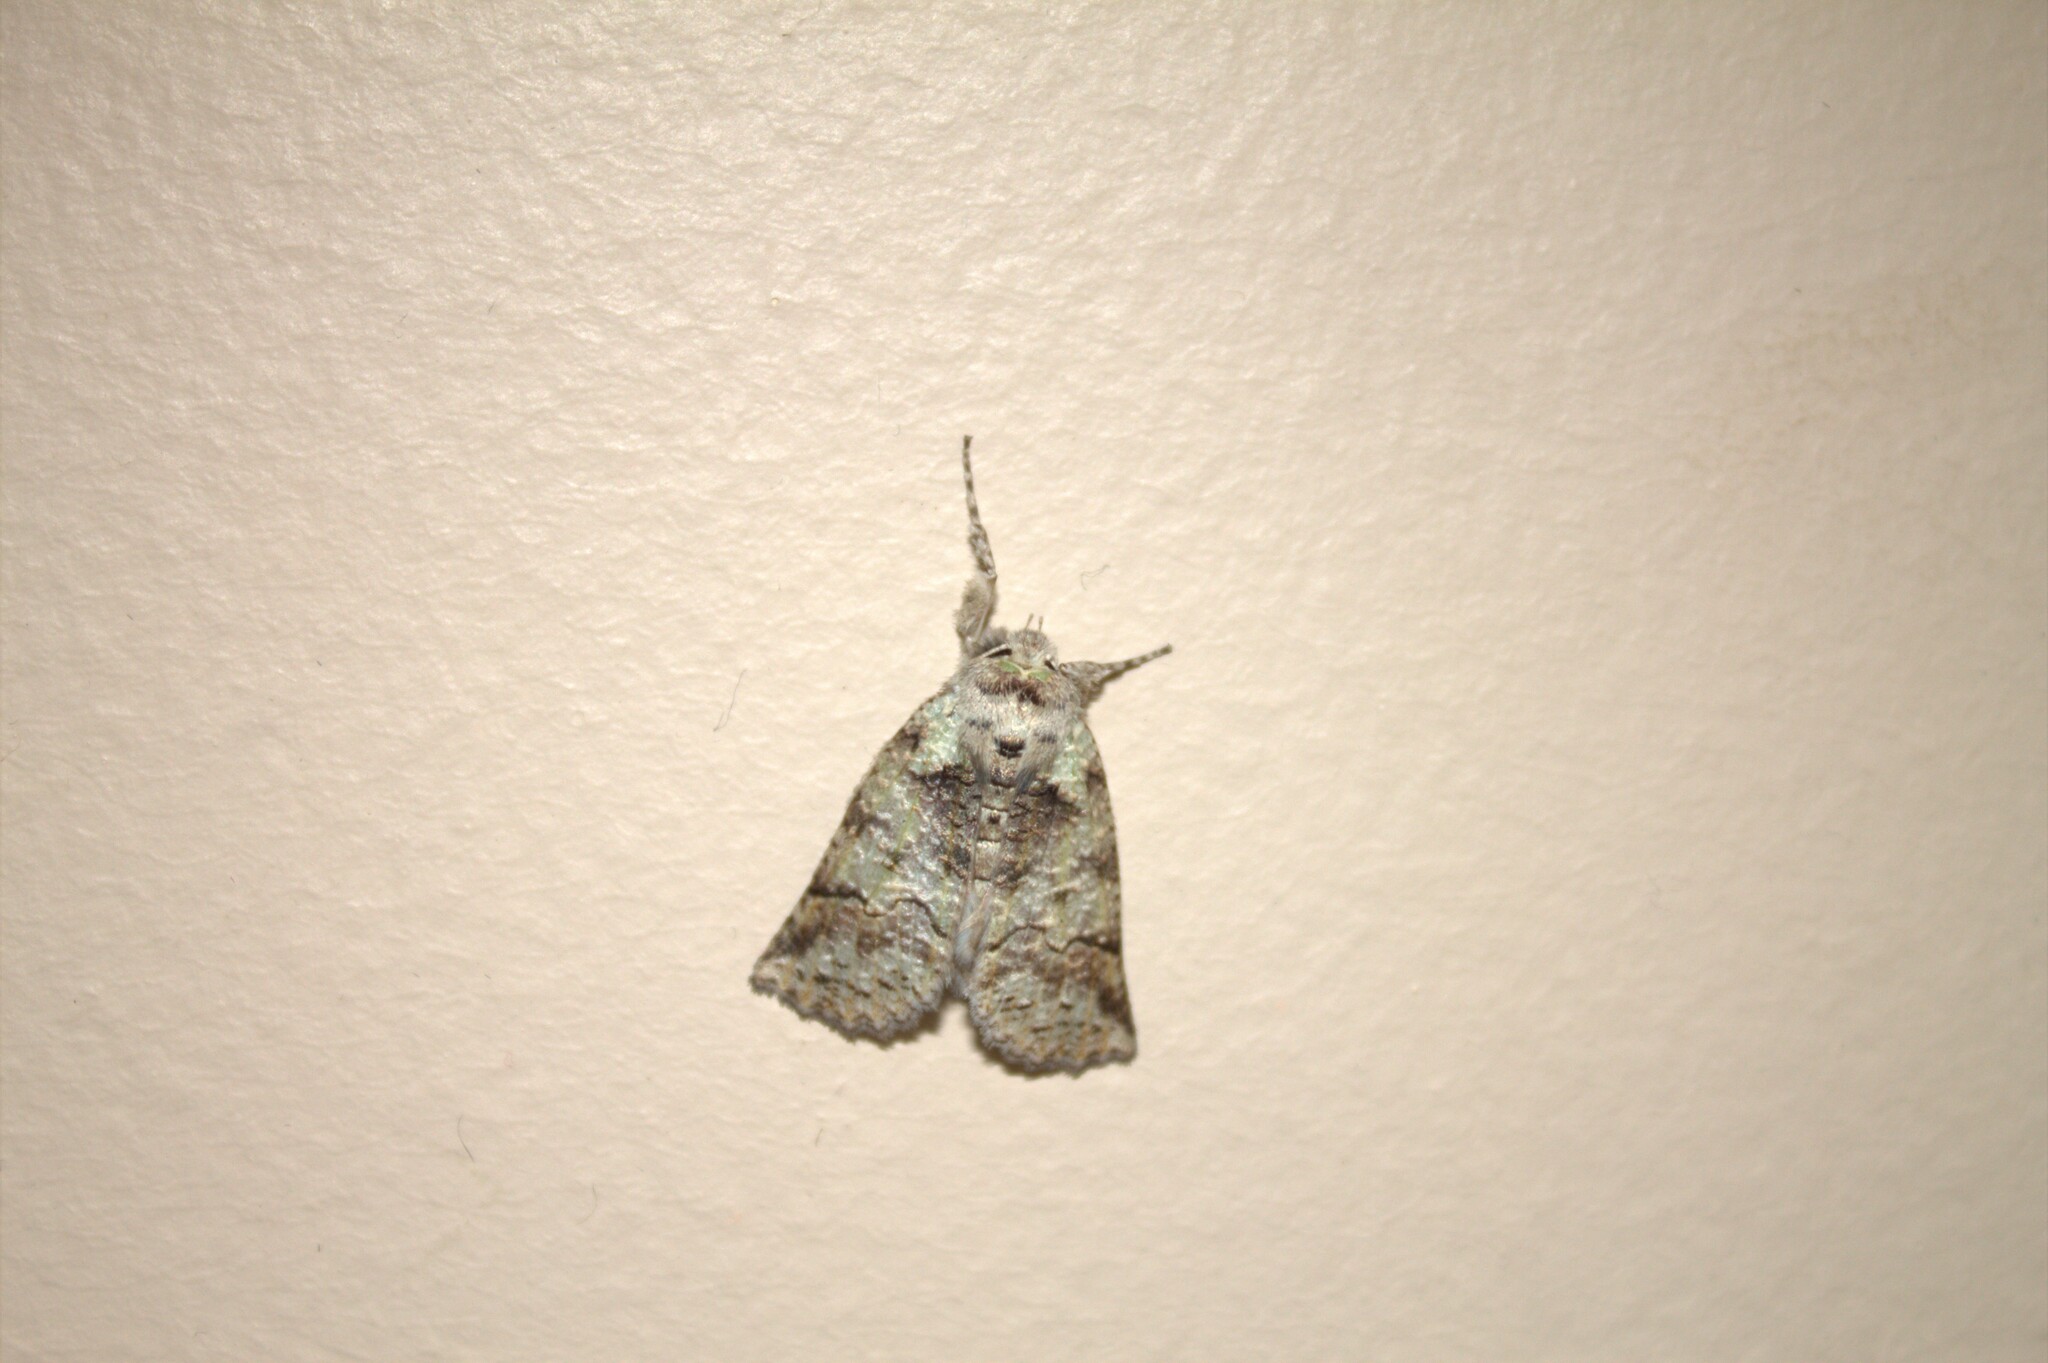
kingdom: Animalia
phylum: Arthropoda
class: Insecta
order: Lepidoptera
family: Geometridae
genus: Declana
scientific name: Declana floccosa
